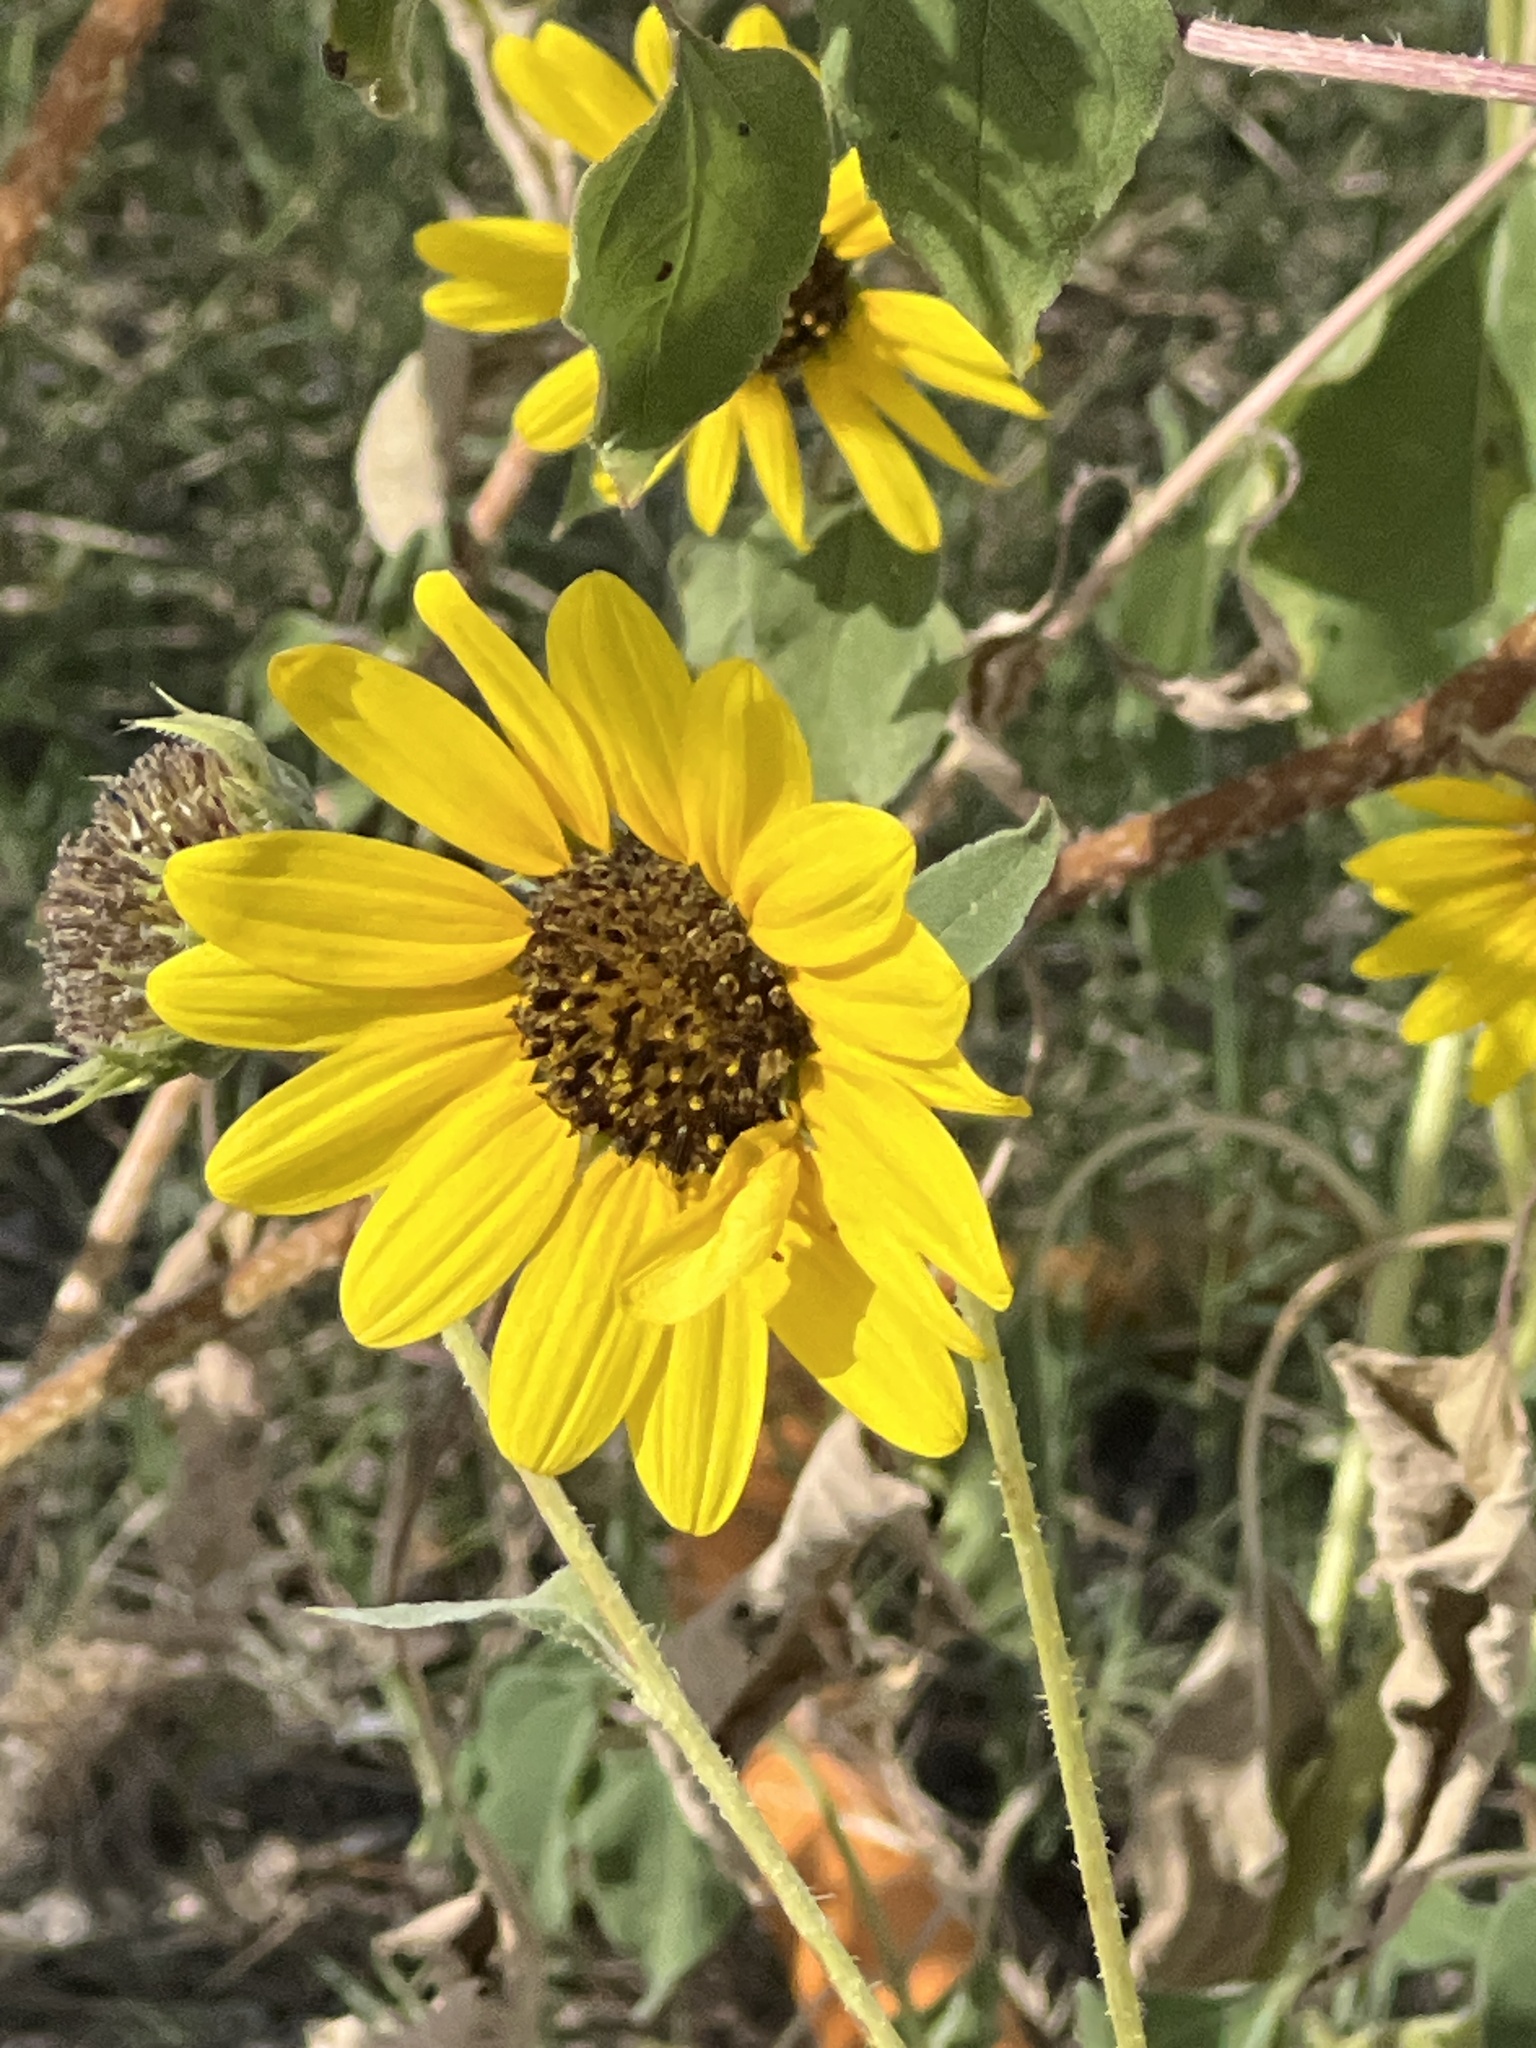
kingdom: Plantae
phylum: Tracheophyta
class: Magnoliopsida
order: Asterales
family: Asteraceae
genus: Helianthus
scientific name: Helianthus annuus
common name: Sunflower
